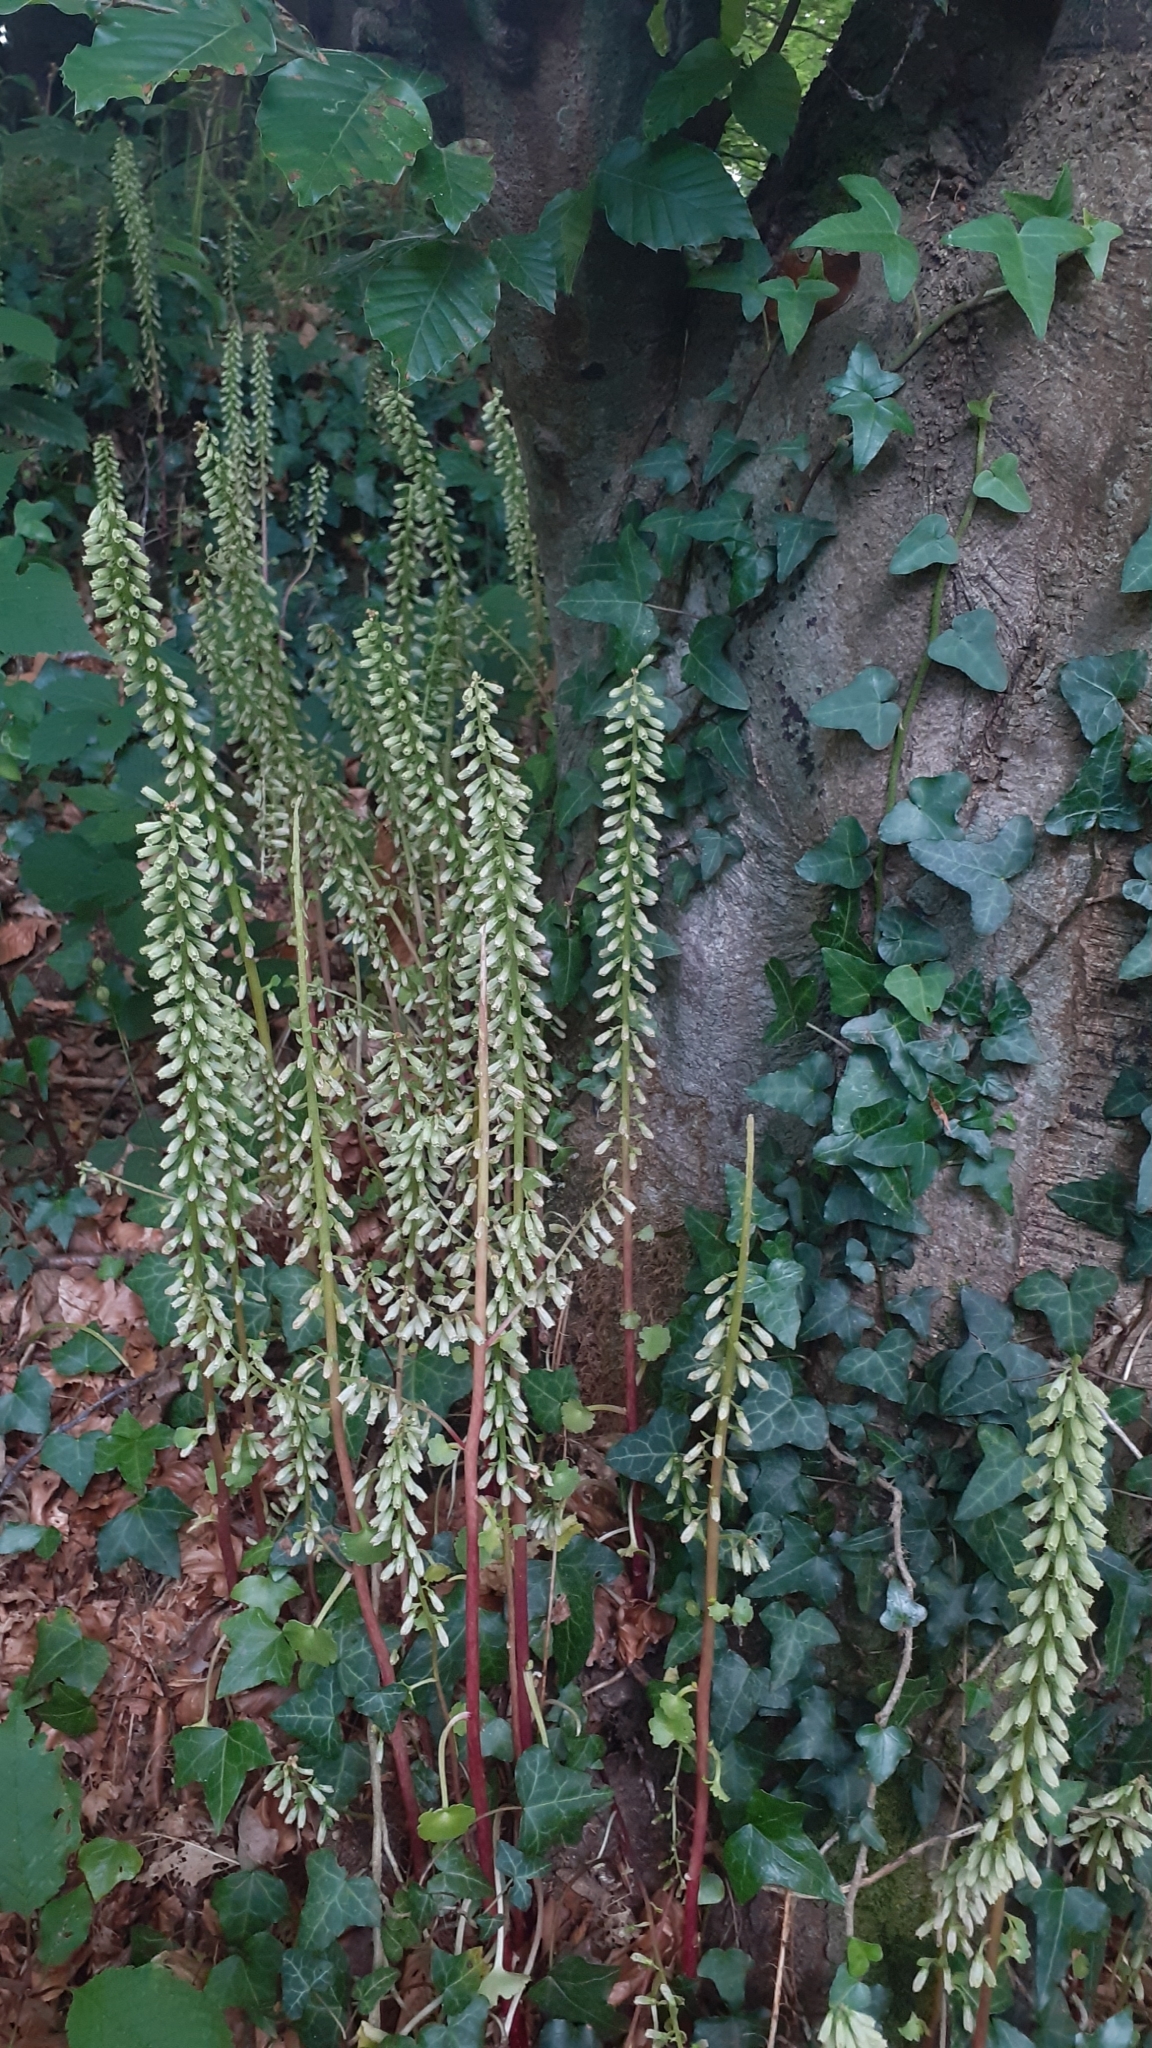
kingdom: Plantae
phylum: Tracheophyta
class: Magnoliopsida
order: Saxifragales
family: Crassulaceae
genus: Umbilicus
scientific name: Umbilicus rupestris
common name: Navelwort
